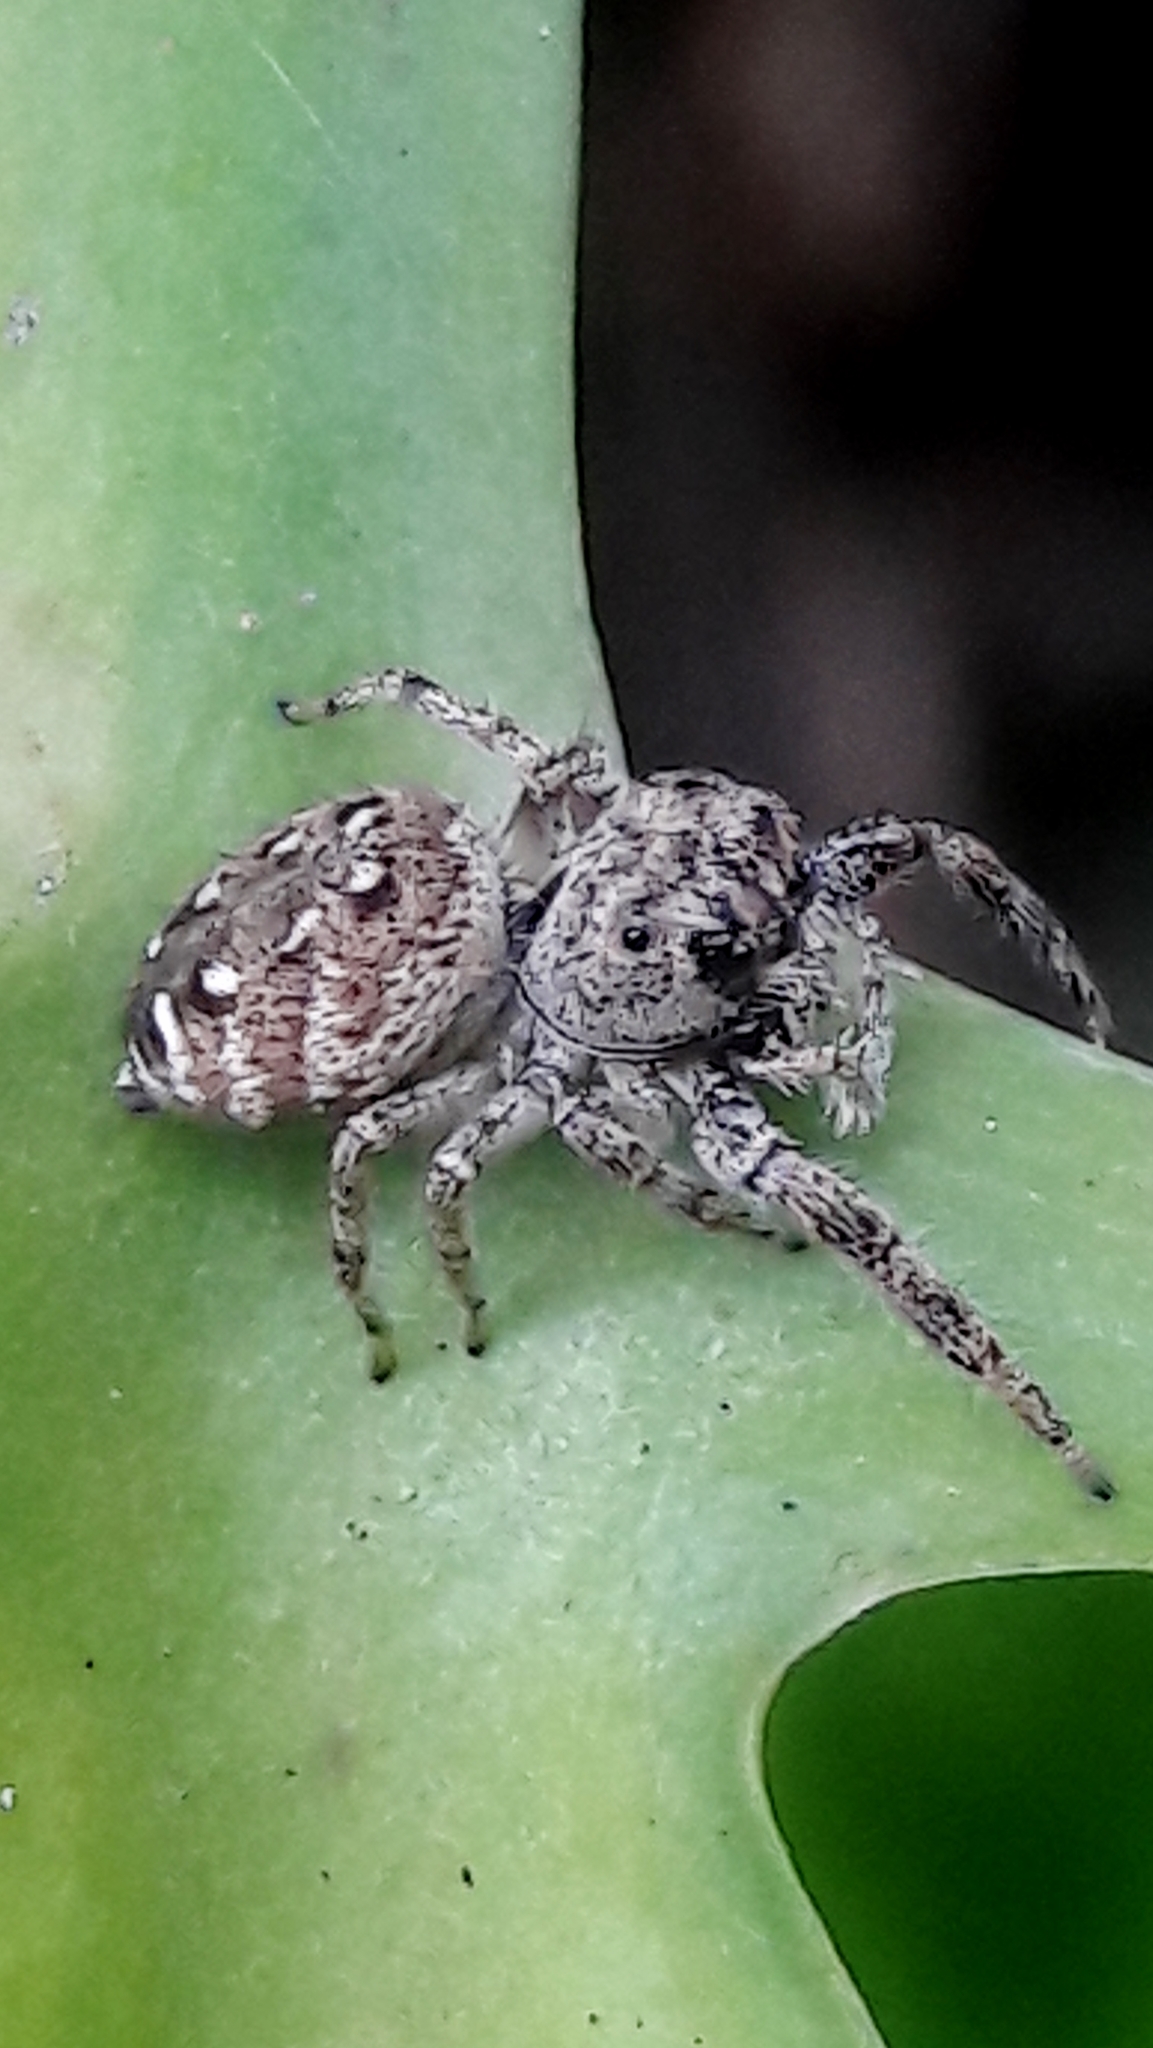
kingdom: Animalia
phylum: Arthropoda
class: Arachnida
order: Araneae
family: Salticidae
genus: Metaphidippus
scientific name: Metaphidippus albopilosus
